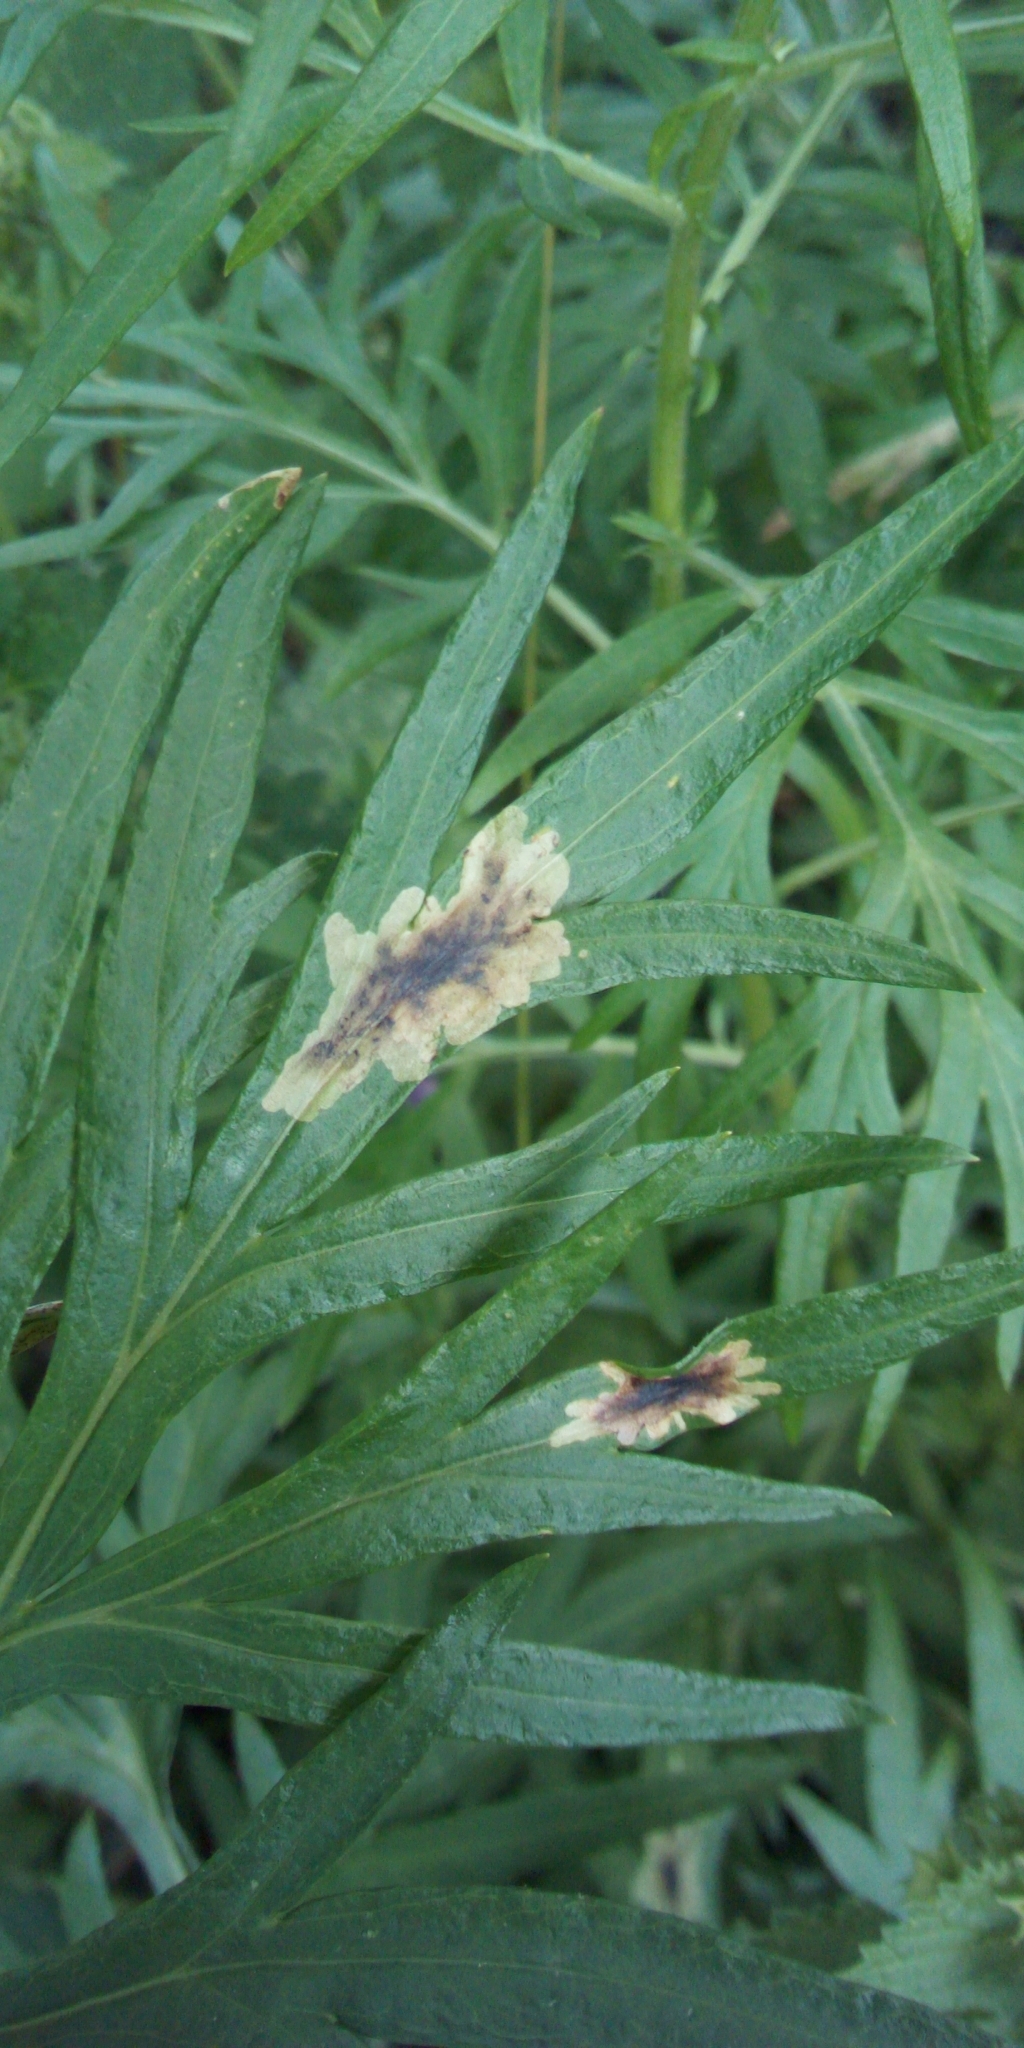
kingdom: Animalia
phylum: Arthropoda
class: Insecta
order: Diptera
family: Tephritidae
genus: Trypeta
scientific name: Trypeta artemisiae
